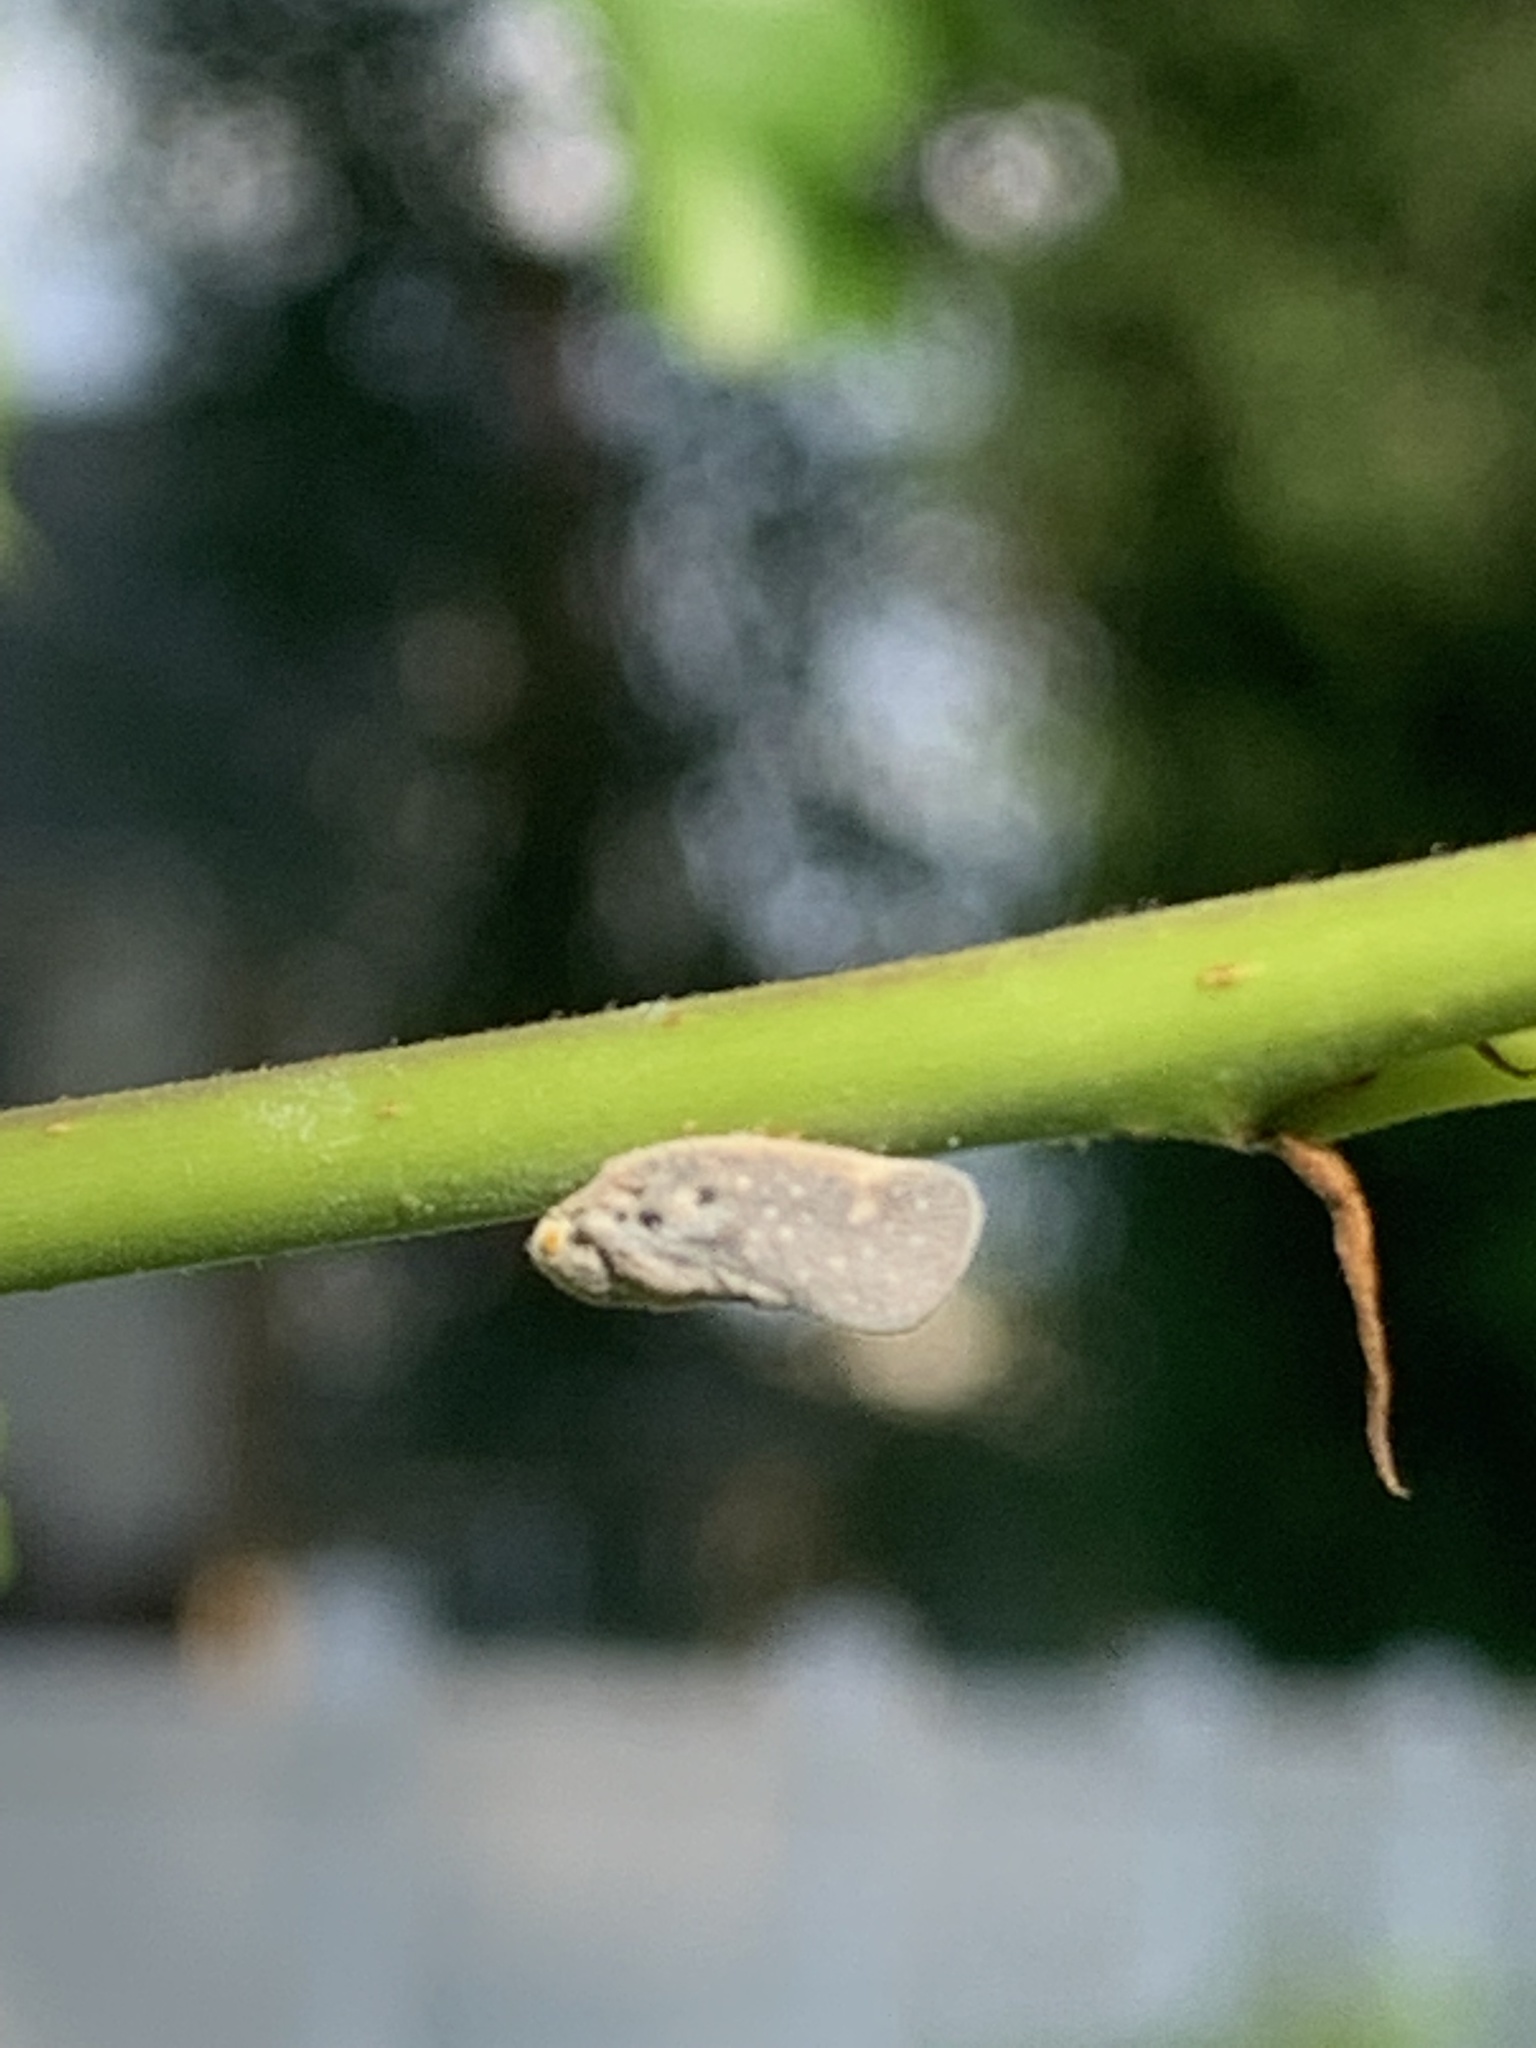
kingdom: Animalia
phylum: Arthropoda
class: Insecta
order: Hemiptera
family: Flatidae
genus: Metcalfa
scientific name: Metcalfa pruinosa
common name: Citrus flatid planthopper
